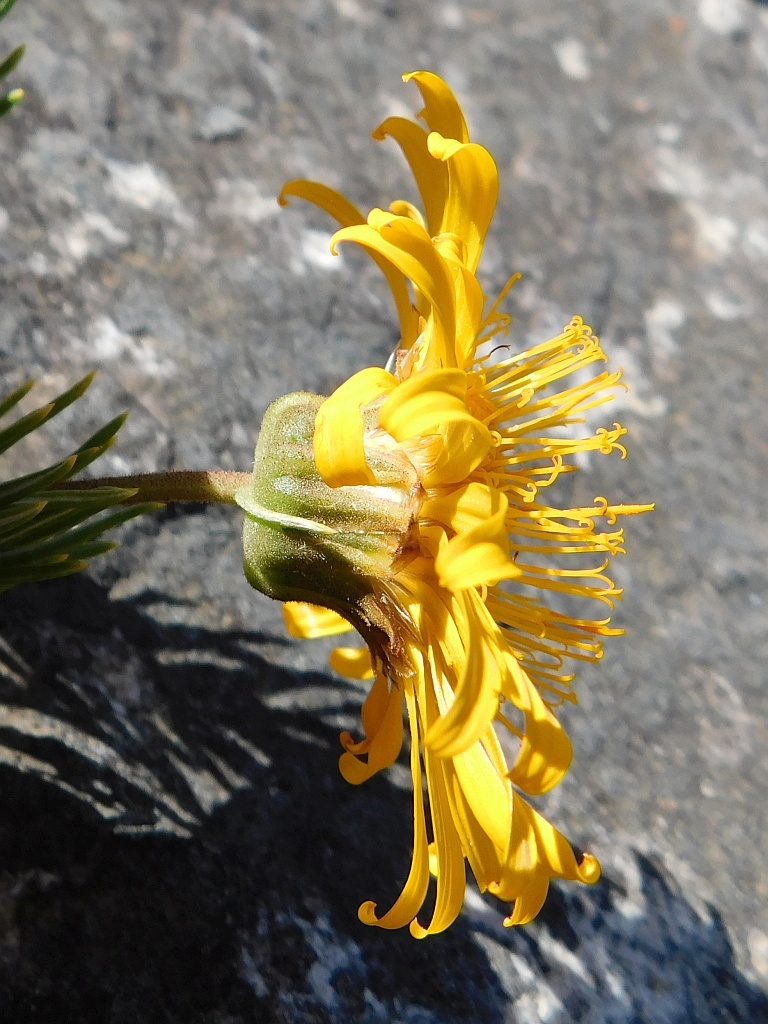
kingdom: Plantae
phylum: Tracheophyta
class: Magnoliopsida
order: Asterales
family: Asteraceae
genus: Heterolepis
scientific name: Heterolepis aliena
